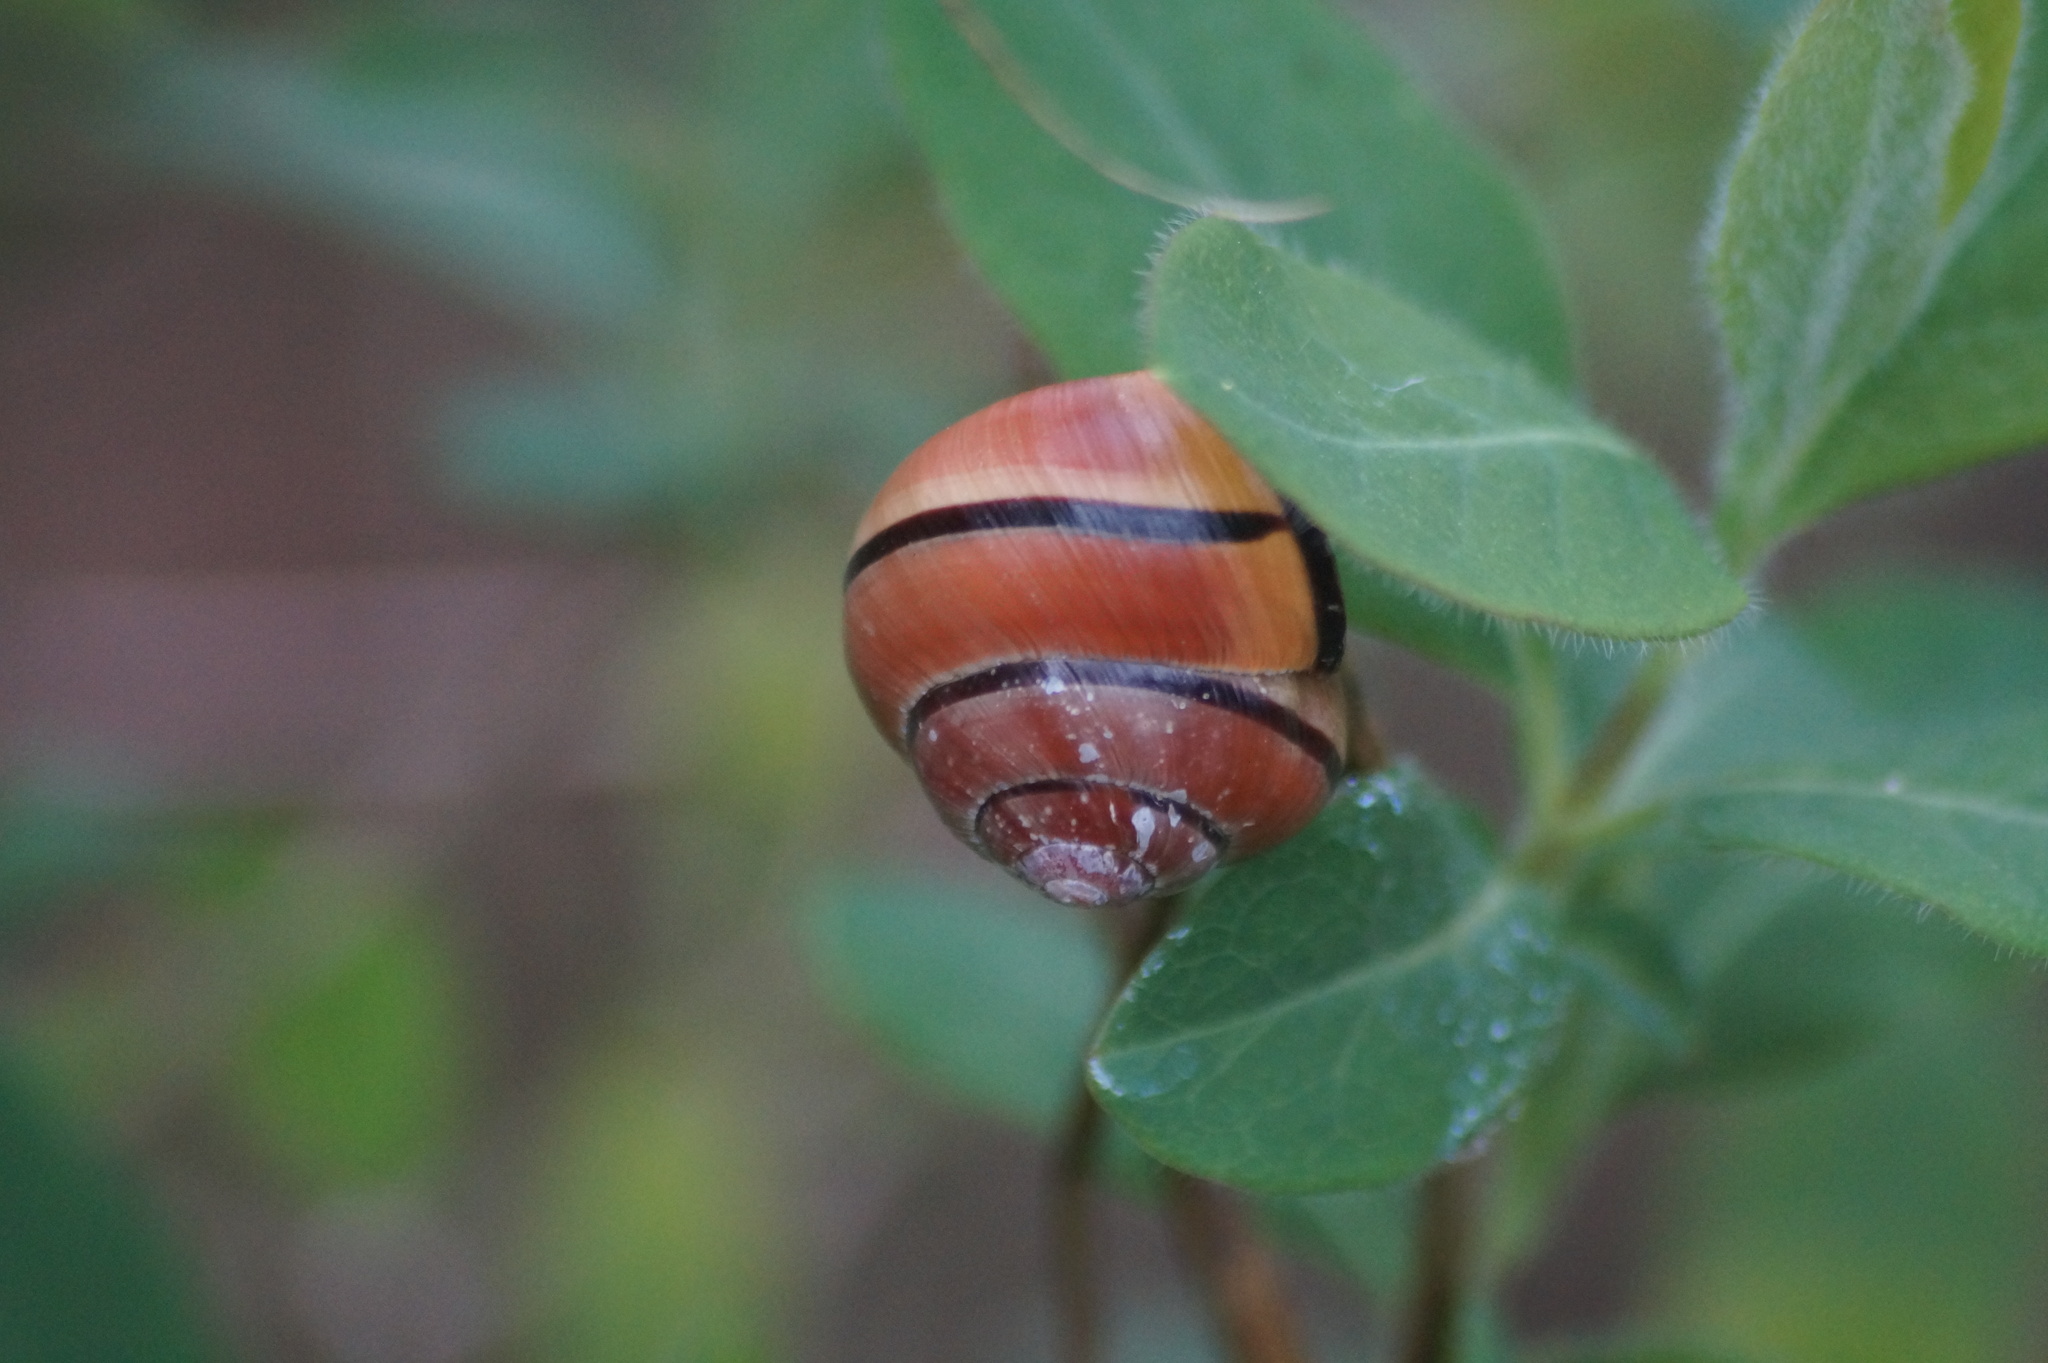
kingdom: Animalia
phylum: Mollusca
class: Gastropoda
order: Stylommatophora
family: Helicidae
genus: Cepaea
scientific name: Cepaea nemoralis
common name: Grovesnail
